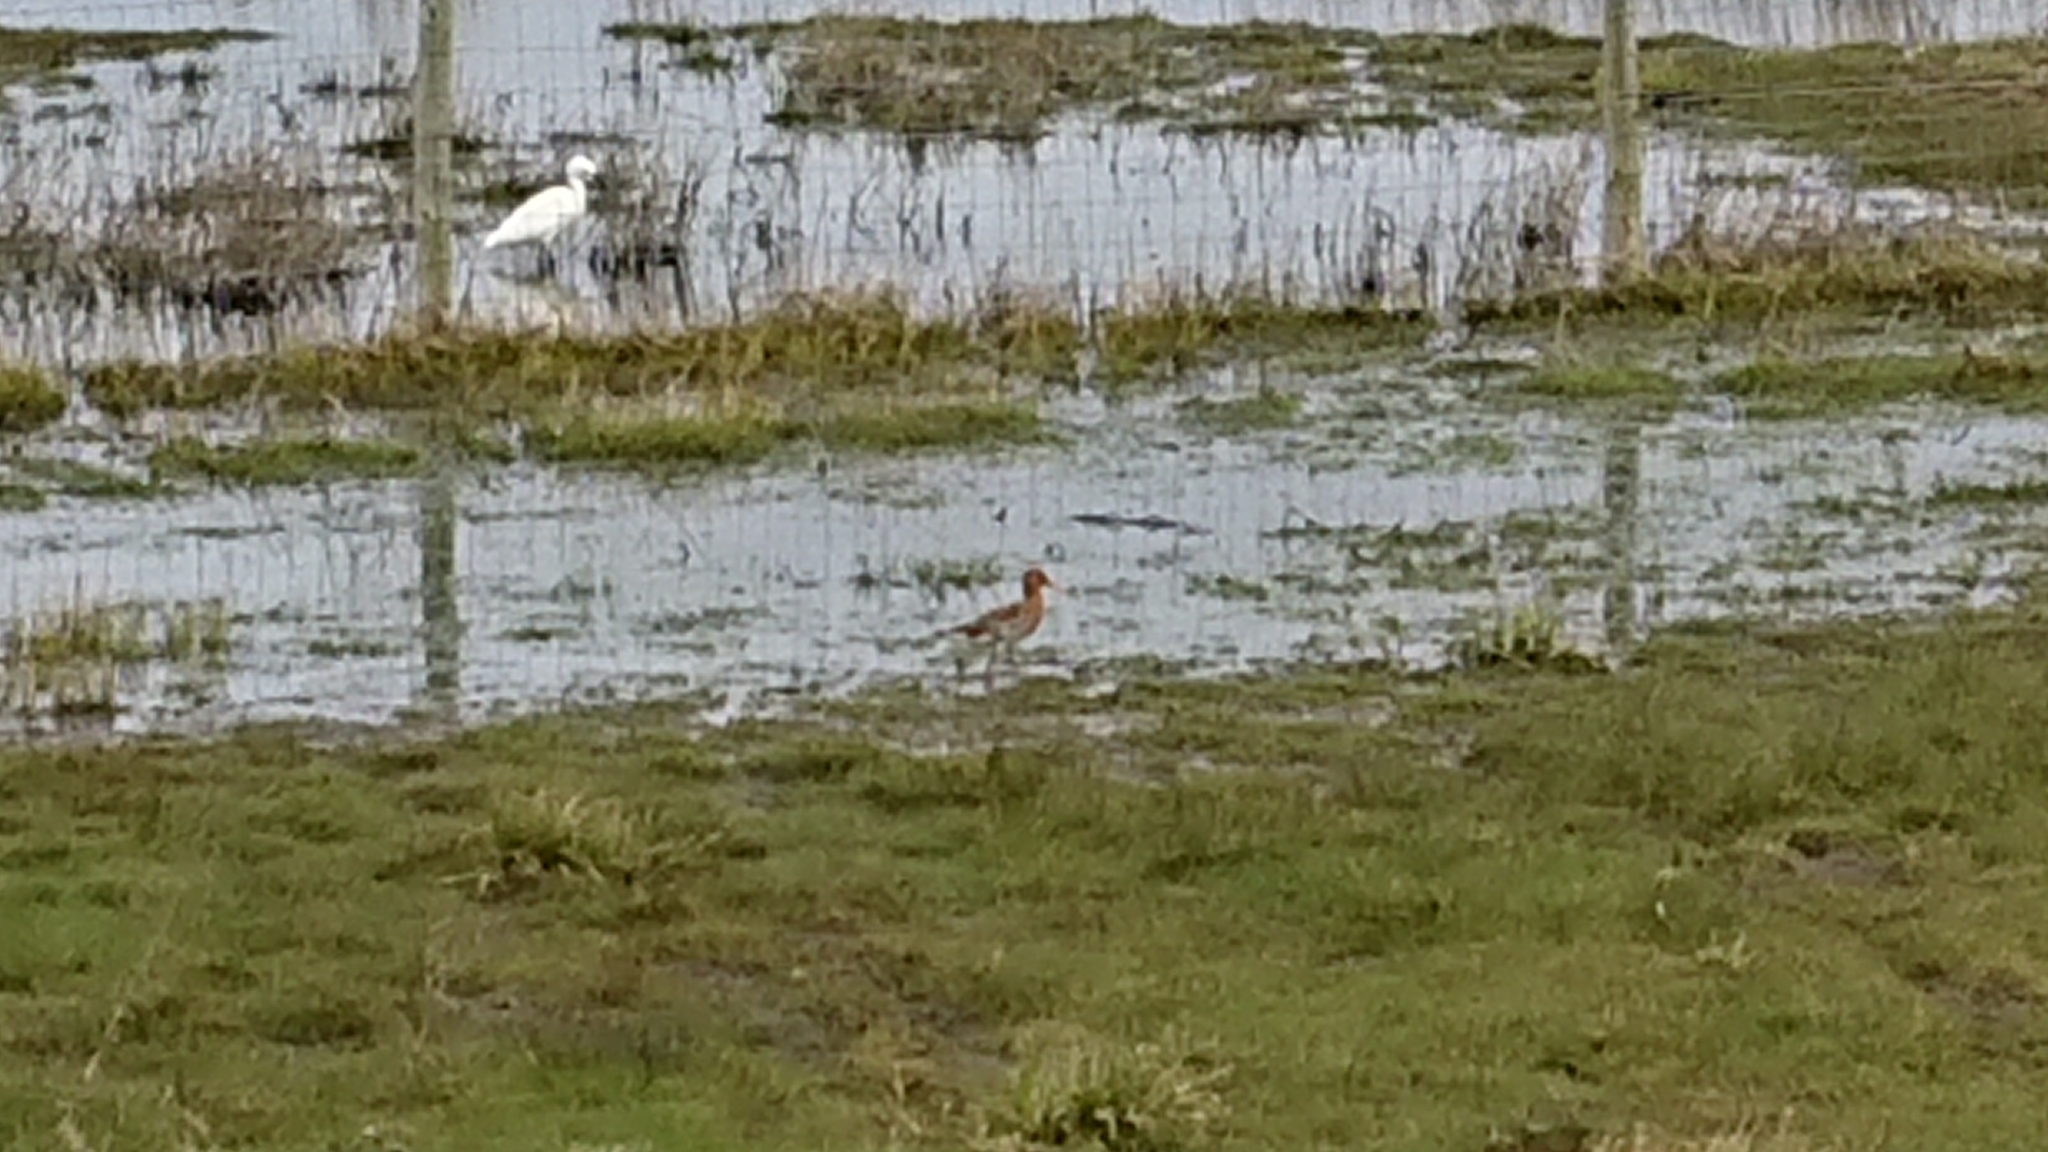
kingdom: Animalia
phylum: Chordata
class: Aves
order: Charadriiformes
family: Scolopacidae
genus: Limosa
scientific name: Limosa limosa
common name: Black-tailed godwit
